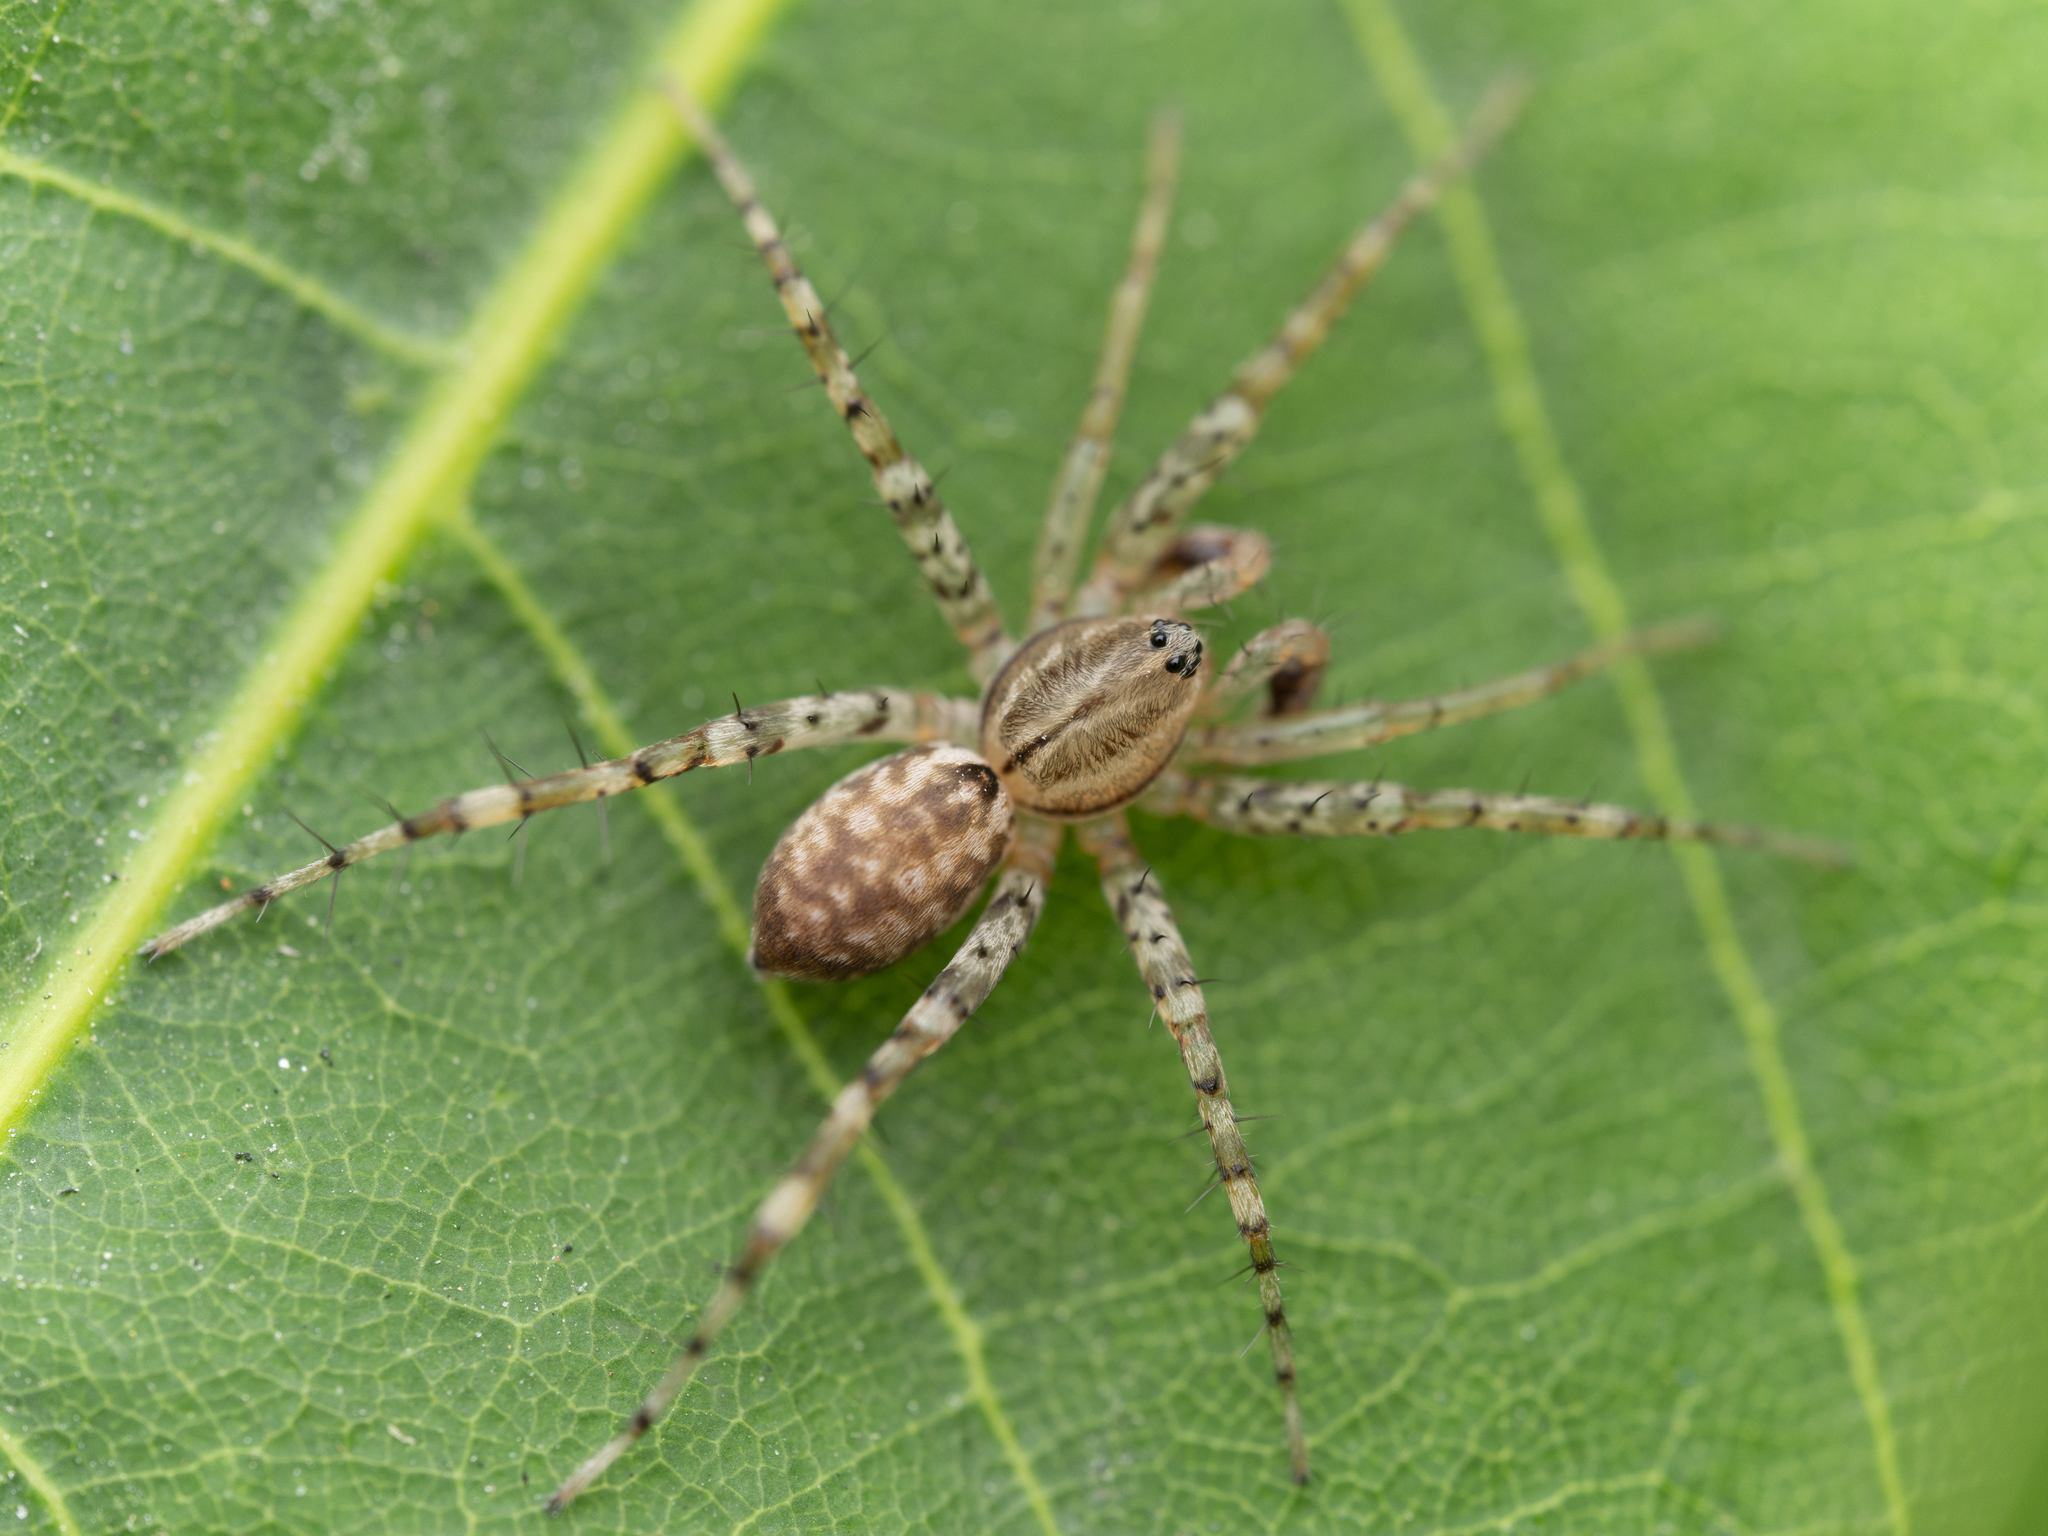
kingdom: Animalia
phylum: Arthropoda
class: Arachnida
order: Araneae
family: Corinnidae
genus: Echinax
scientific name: Echinax panache
